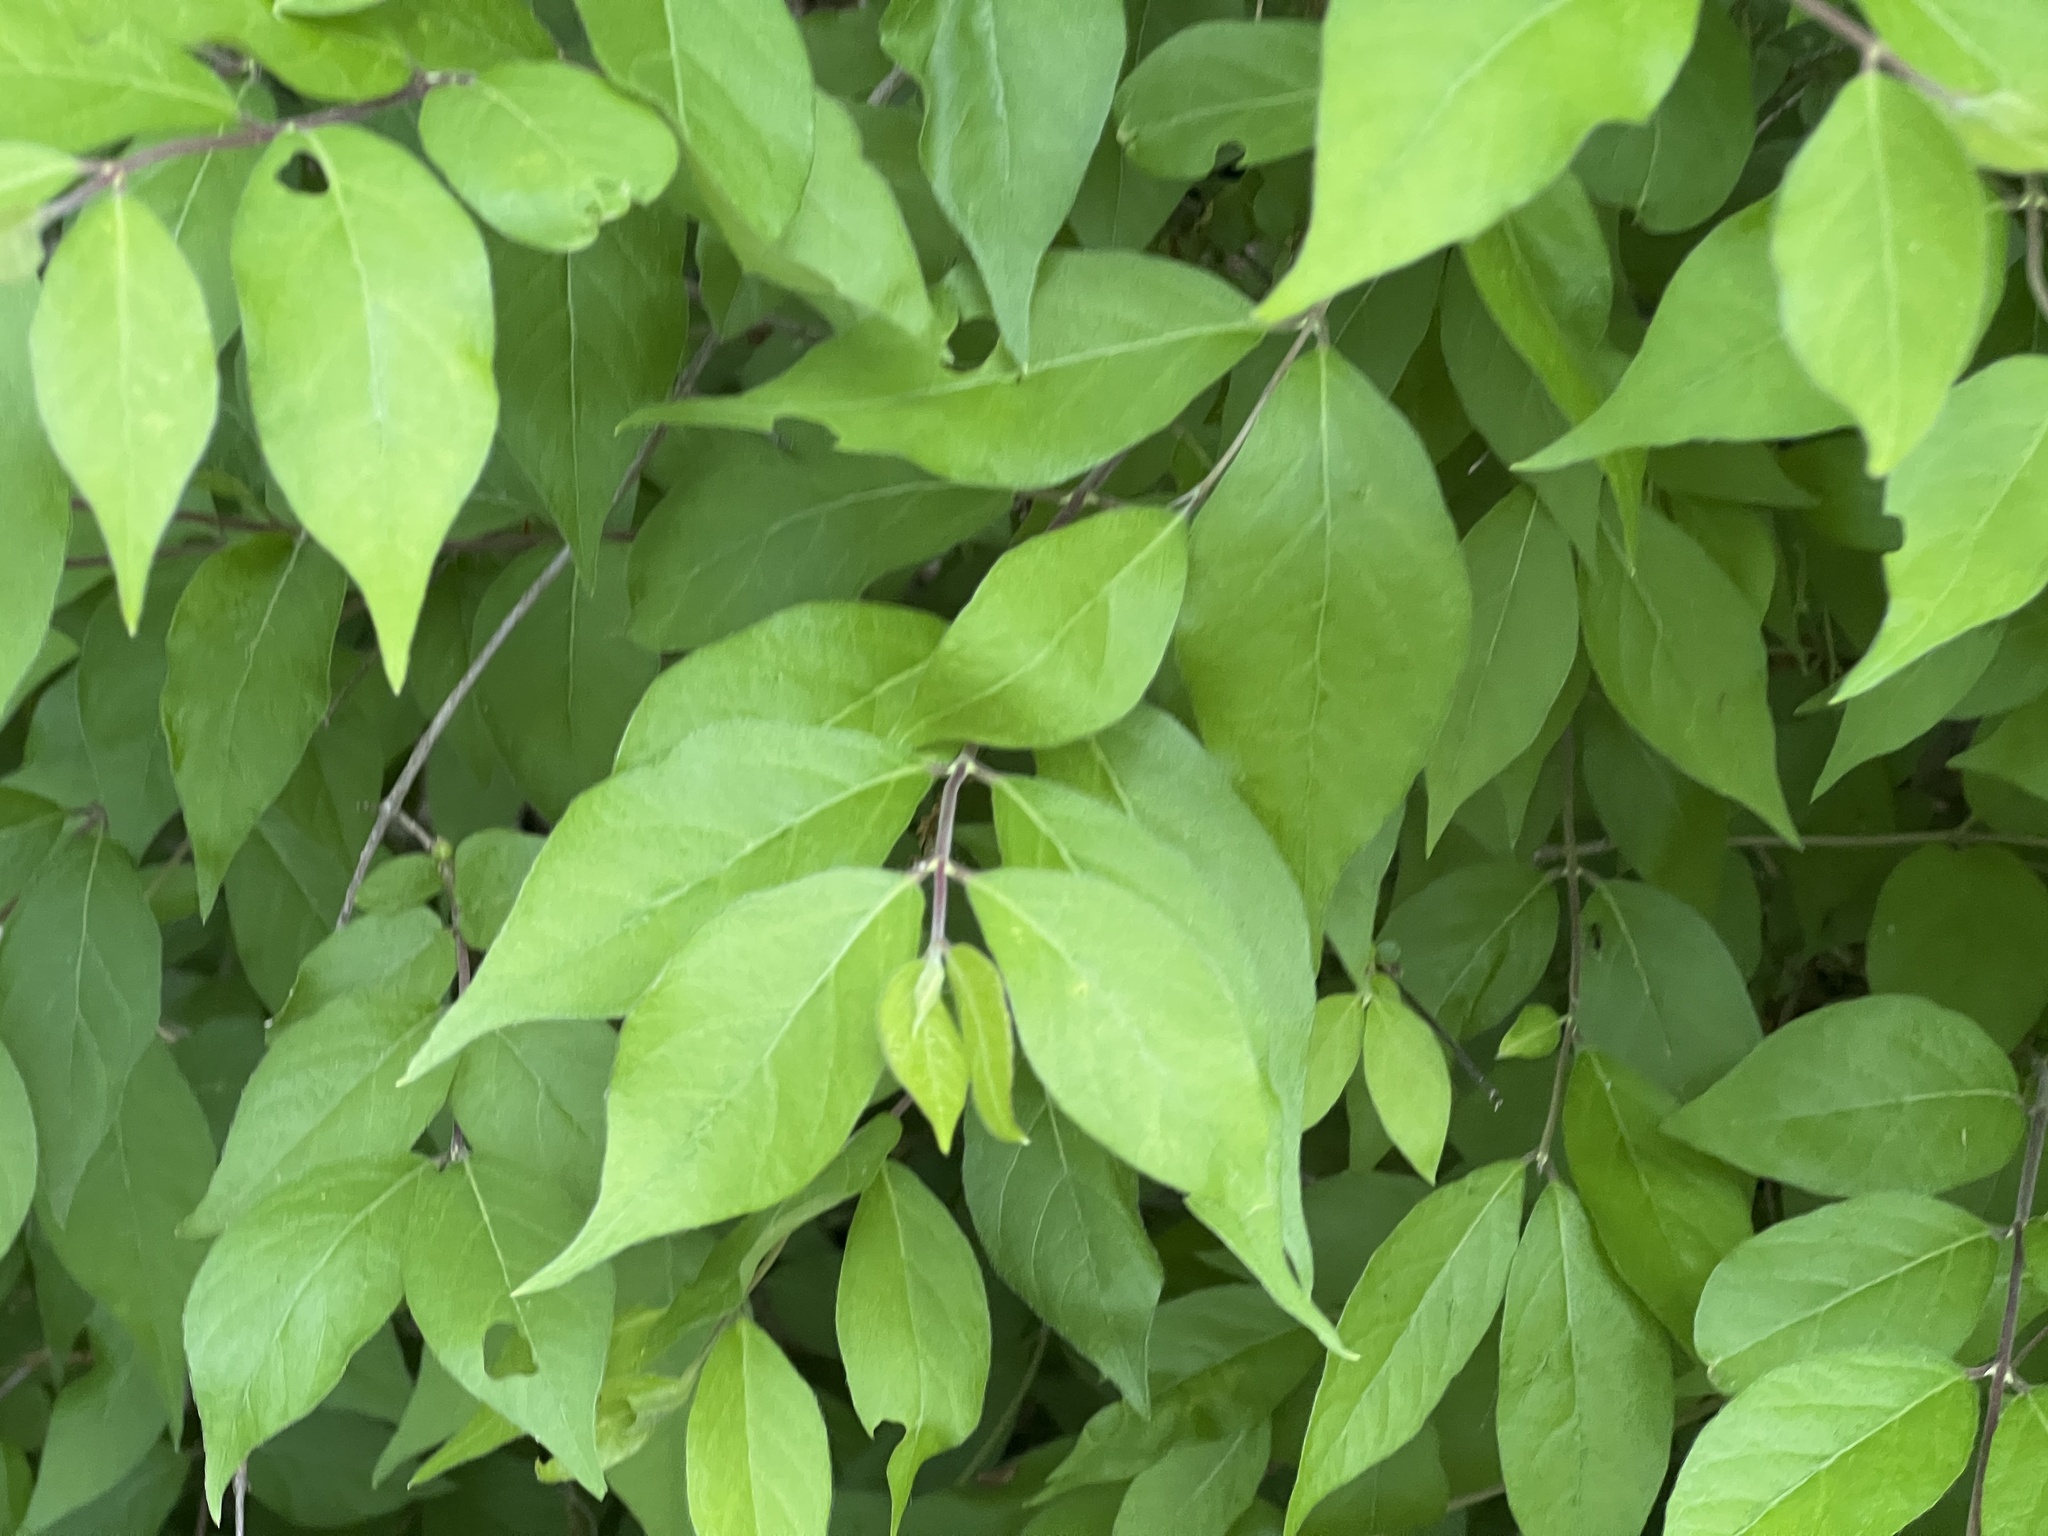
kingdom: Plantae
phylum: Tracheophyta
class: Magnoliopsida
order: Dipsacales
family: Caprifoliaceae
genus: Lonicera
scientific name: Lonicera maackii
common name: Amur honeysuckle
